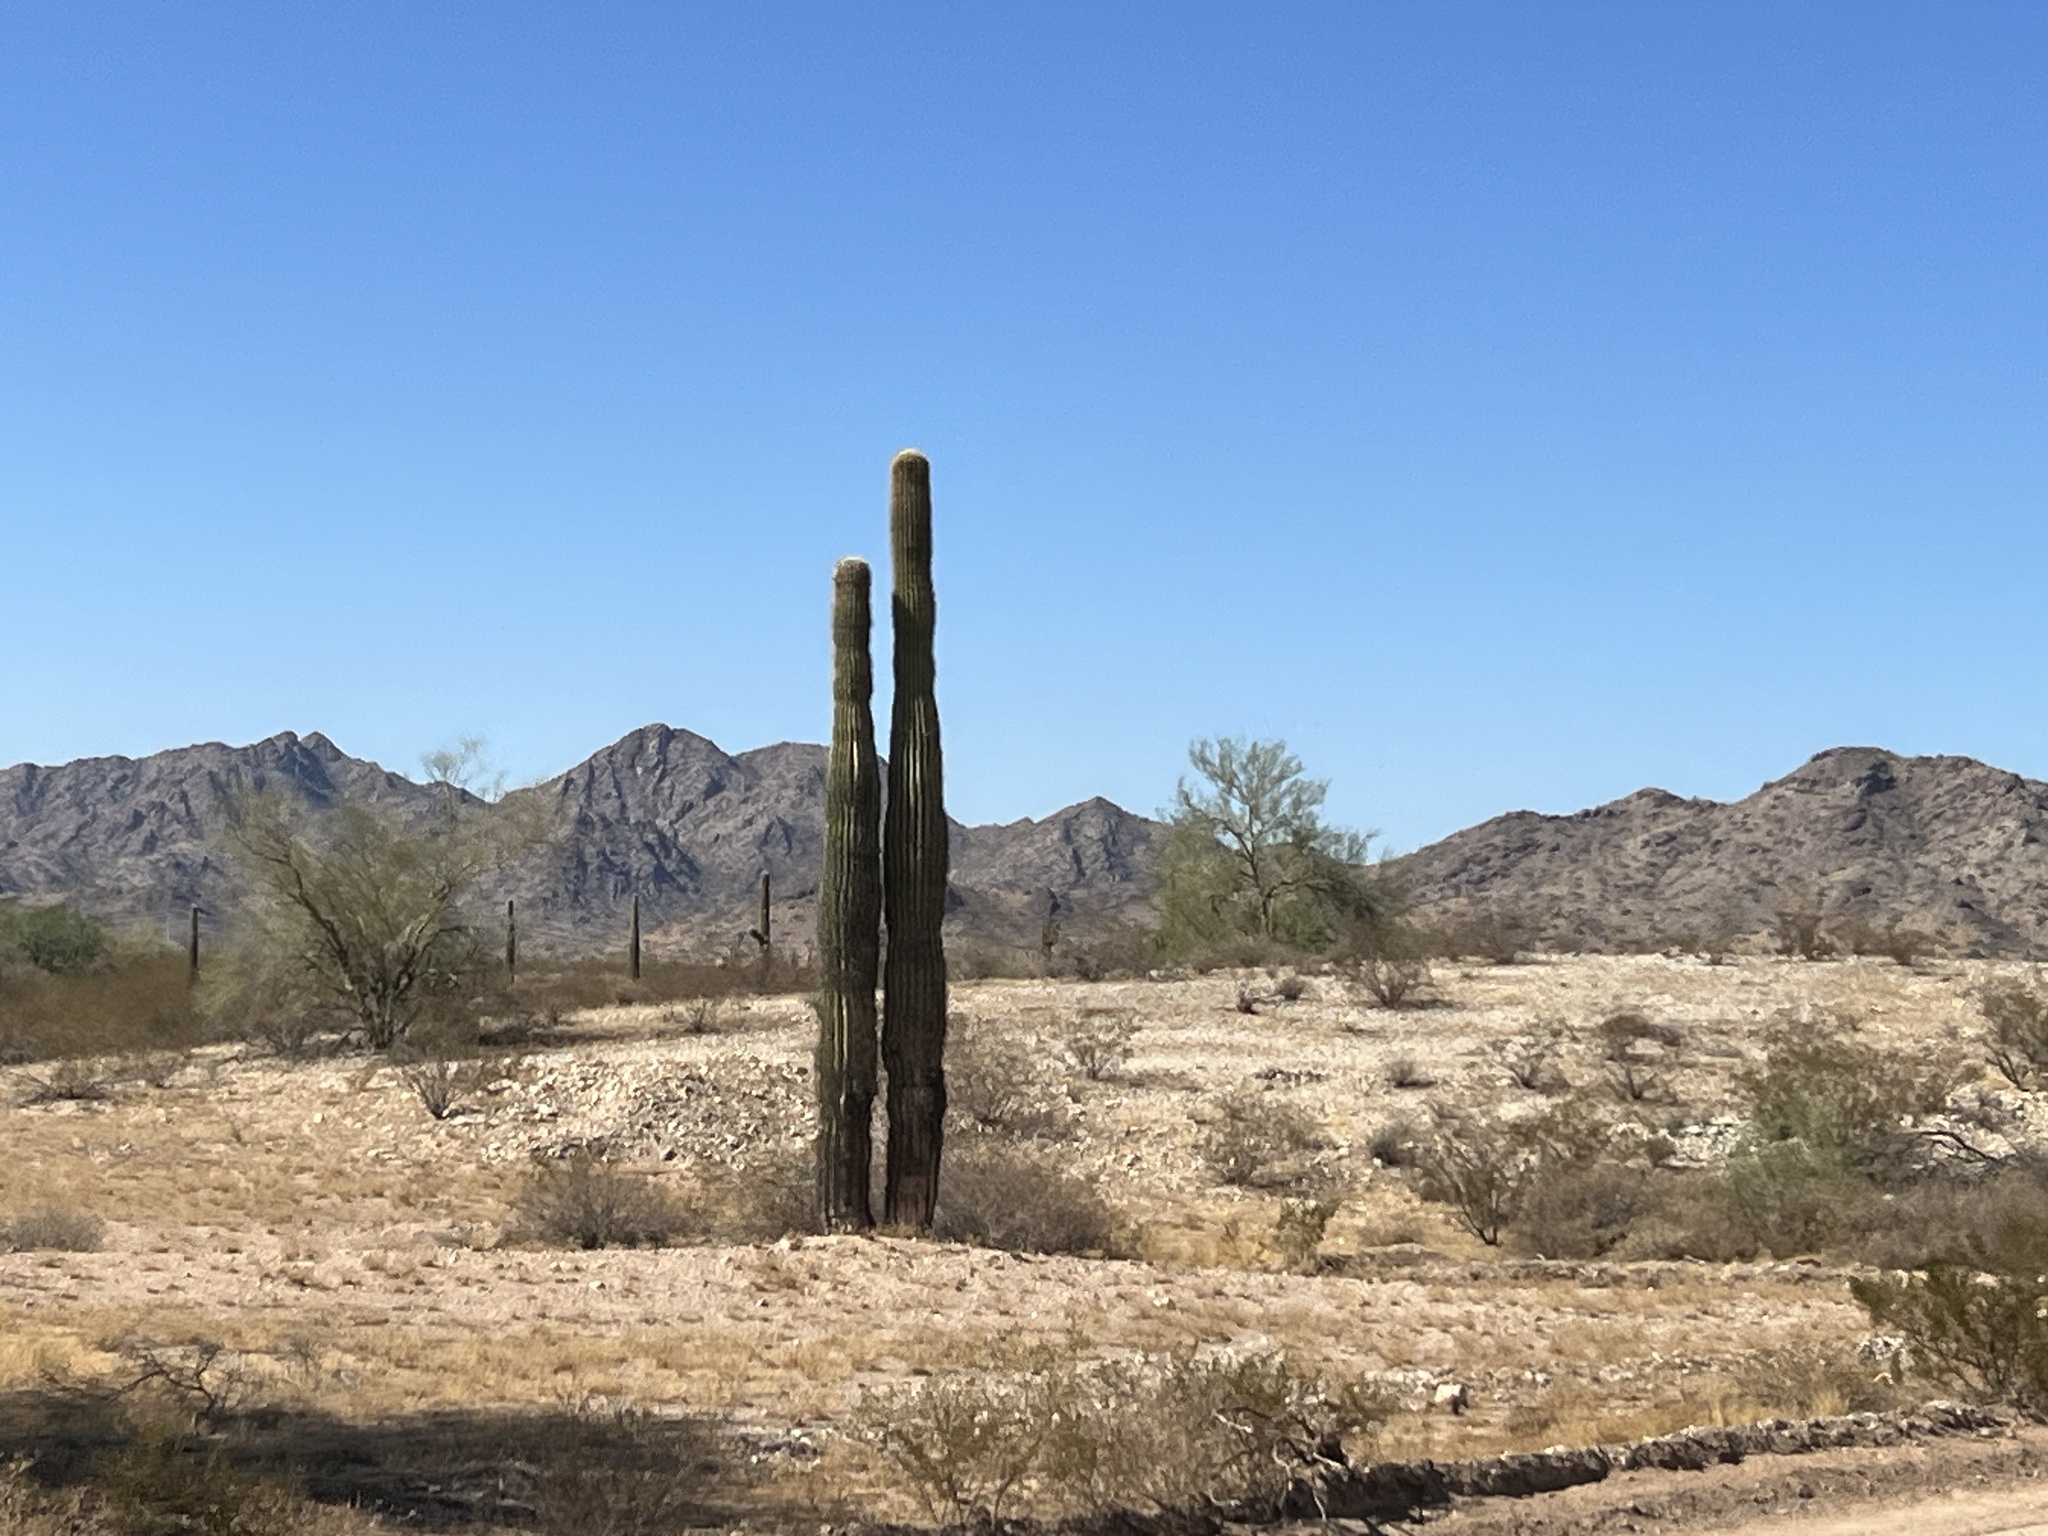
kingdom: Plantae
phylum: Tracheophyta
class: Magnoliopsida
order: Caryophyllales
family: Cactaceae
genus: Carnegiea
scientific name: Carnegiea gigantea
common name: Saguaro
